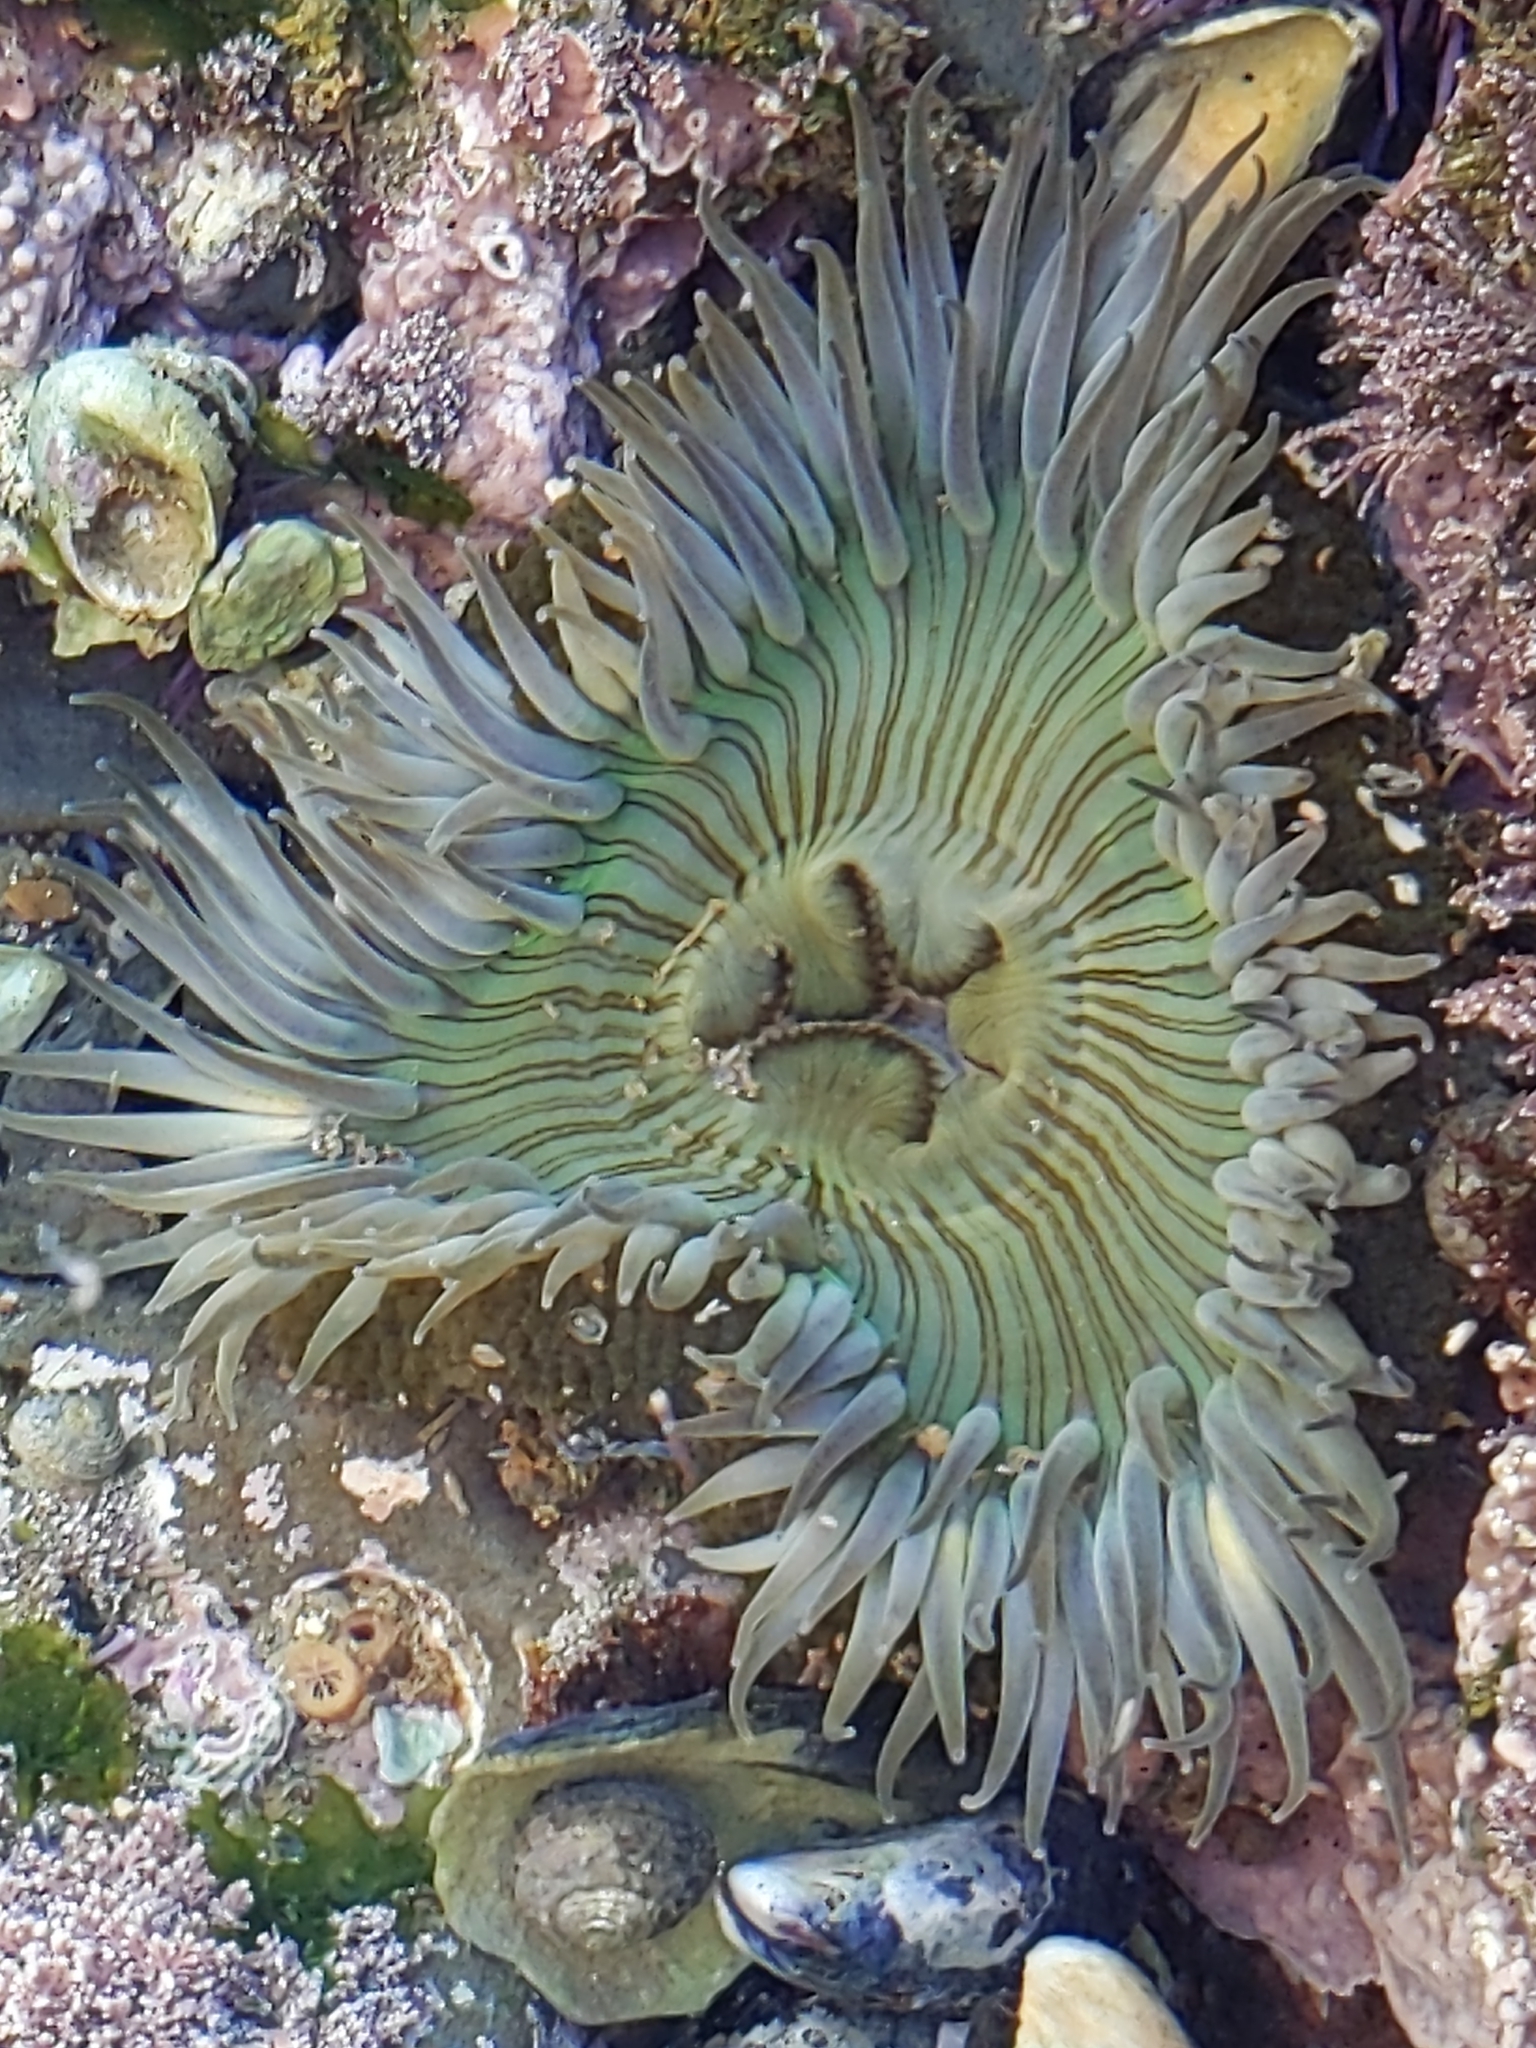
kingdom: Animalia
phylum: Cnidaria
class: Anthozoa
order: Actiniaria
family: Actiniidae
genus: Anthopleura
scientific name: Anthopleura sola
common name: Sun anemone
